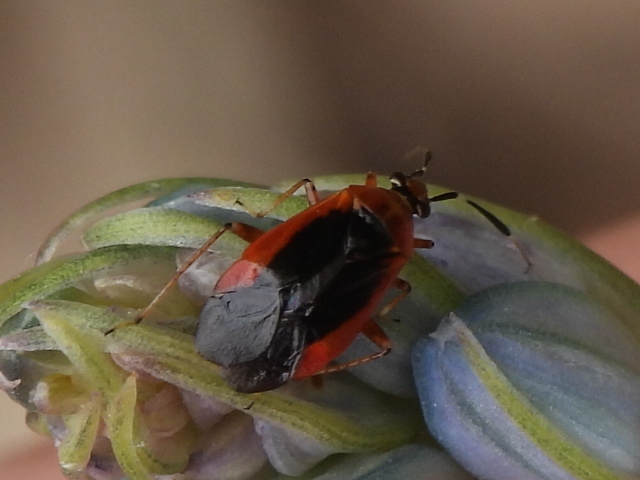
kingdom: Animalia
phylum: Arthropoda
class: Insecta
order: Hemiptera
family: Miridae
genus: Metriorrhynchomiris
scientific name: Metriorrhynchomiris dislocatus
